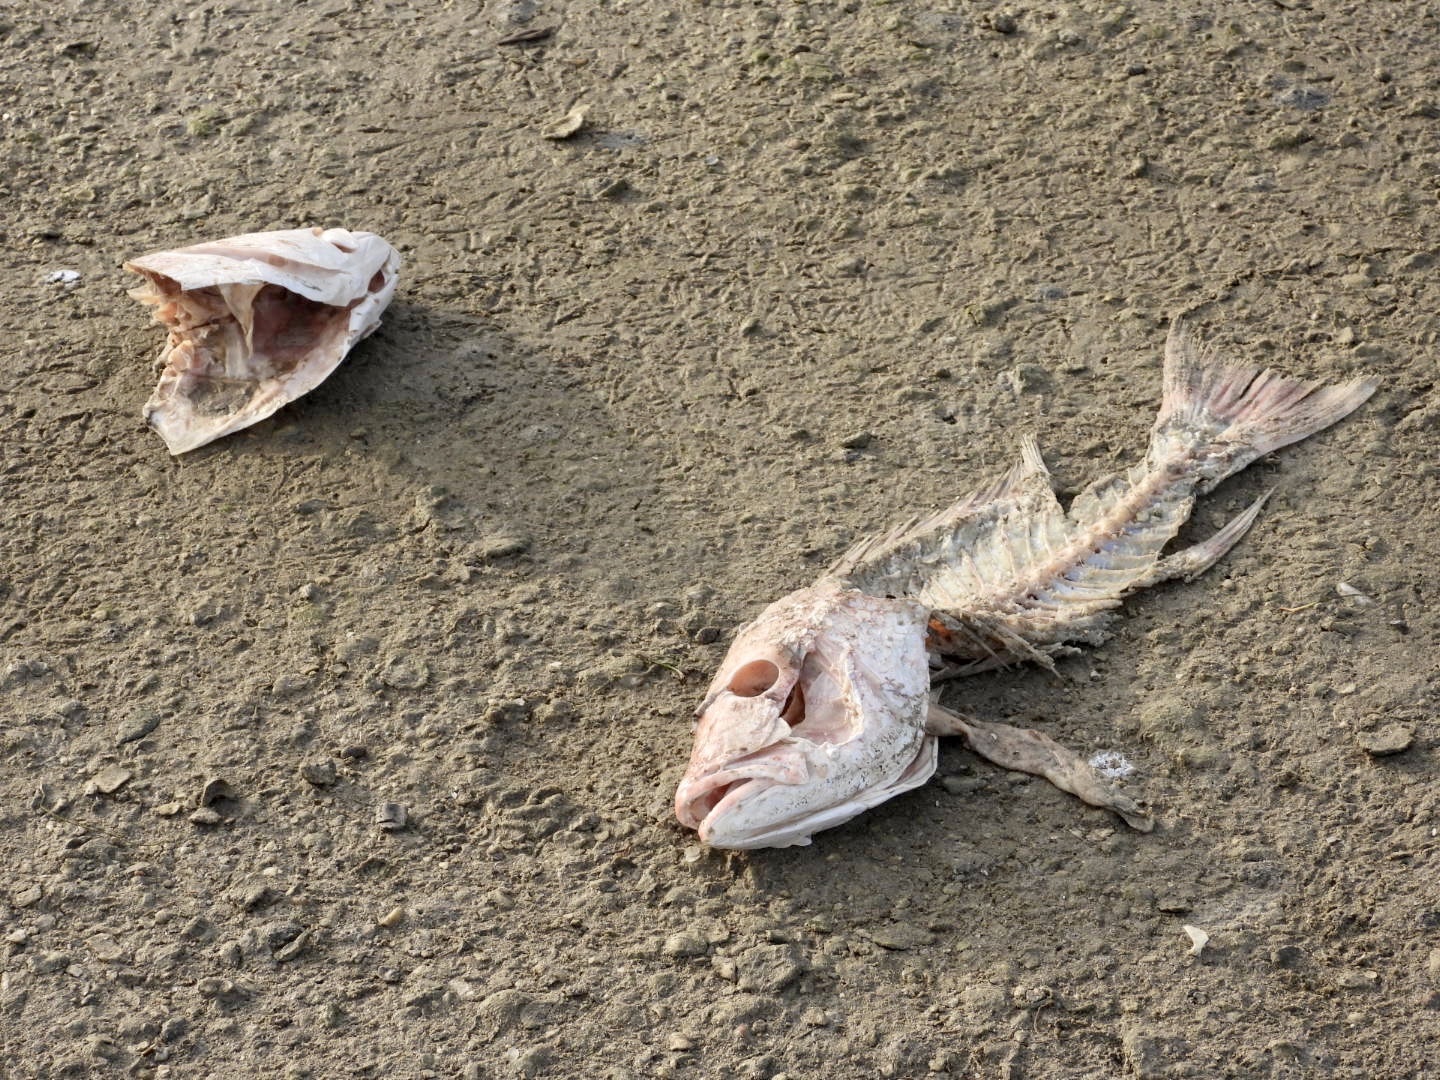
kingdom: Animalia
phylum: Chordata
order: Perciformes
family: Lutjanidae
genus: Lutjanus
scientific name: Lutjanus campechanus
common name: Red snapper
